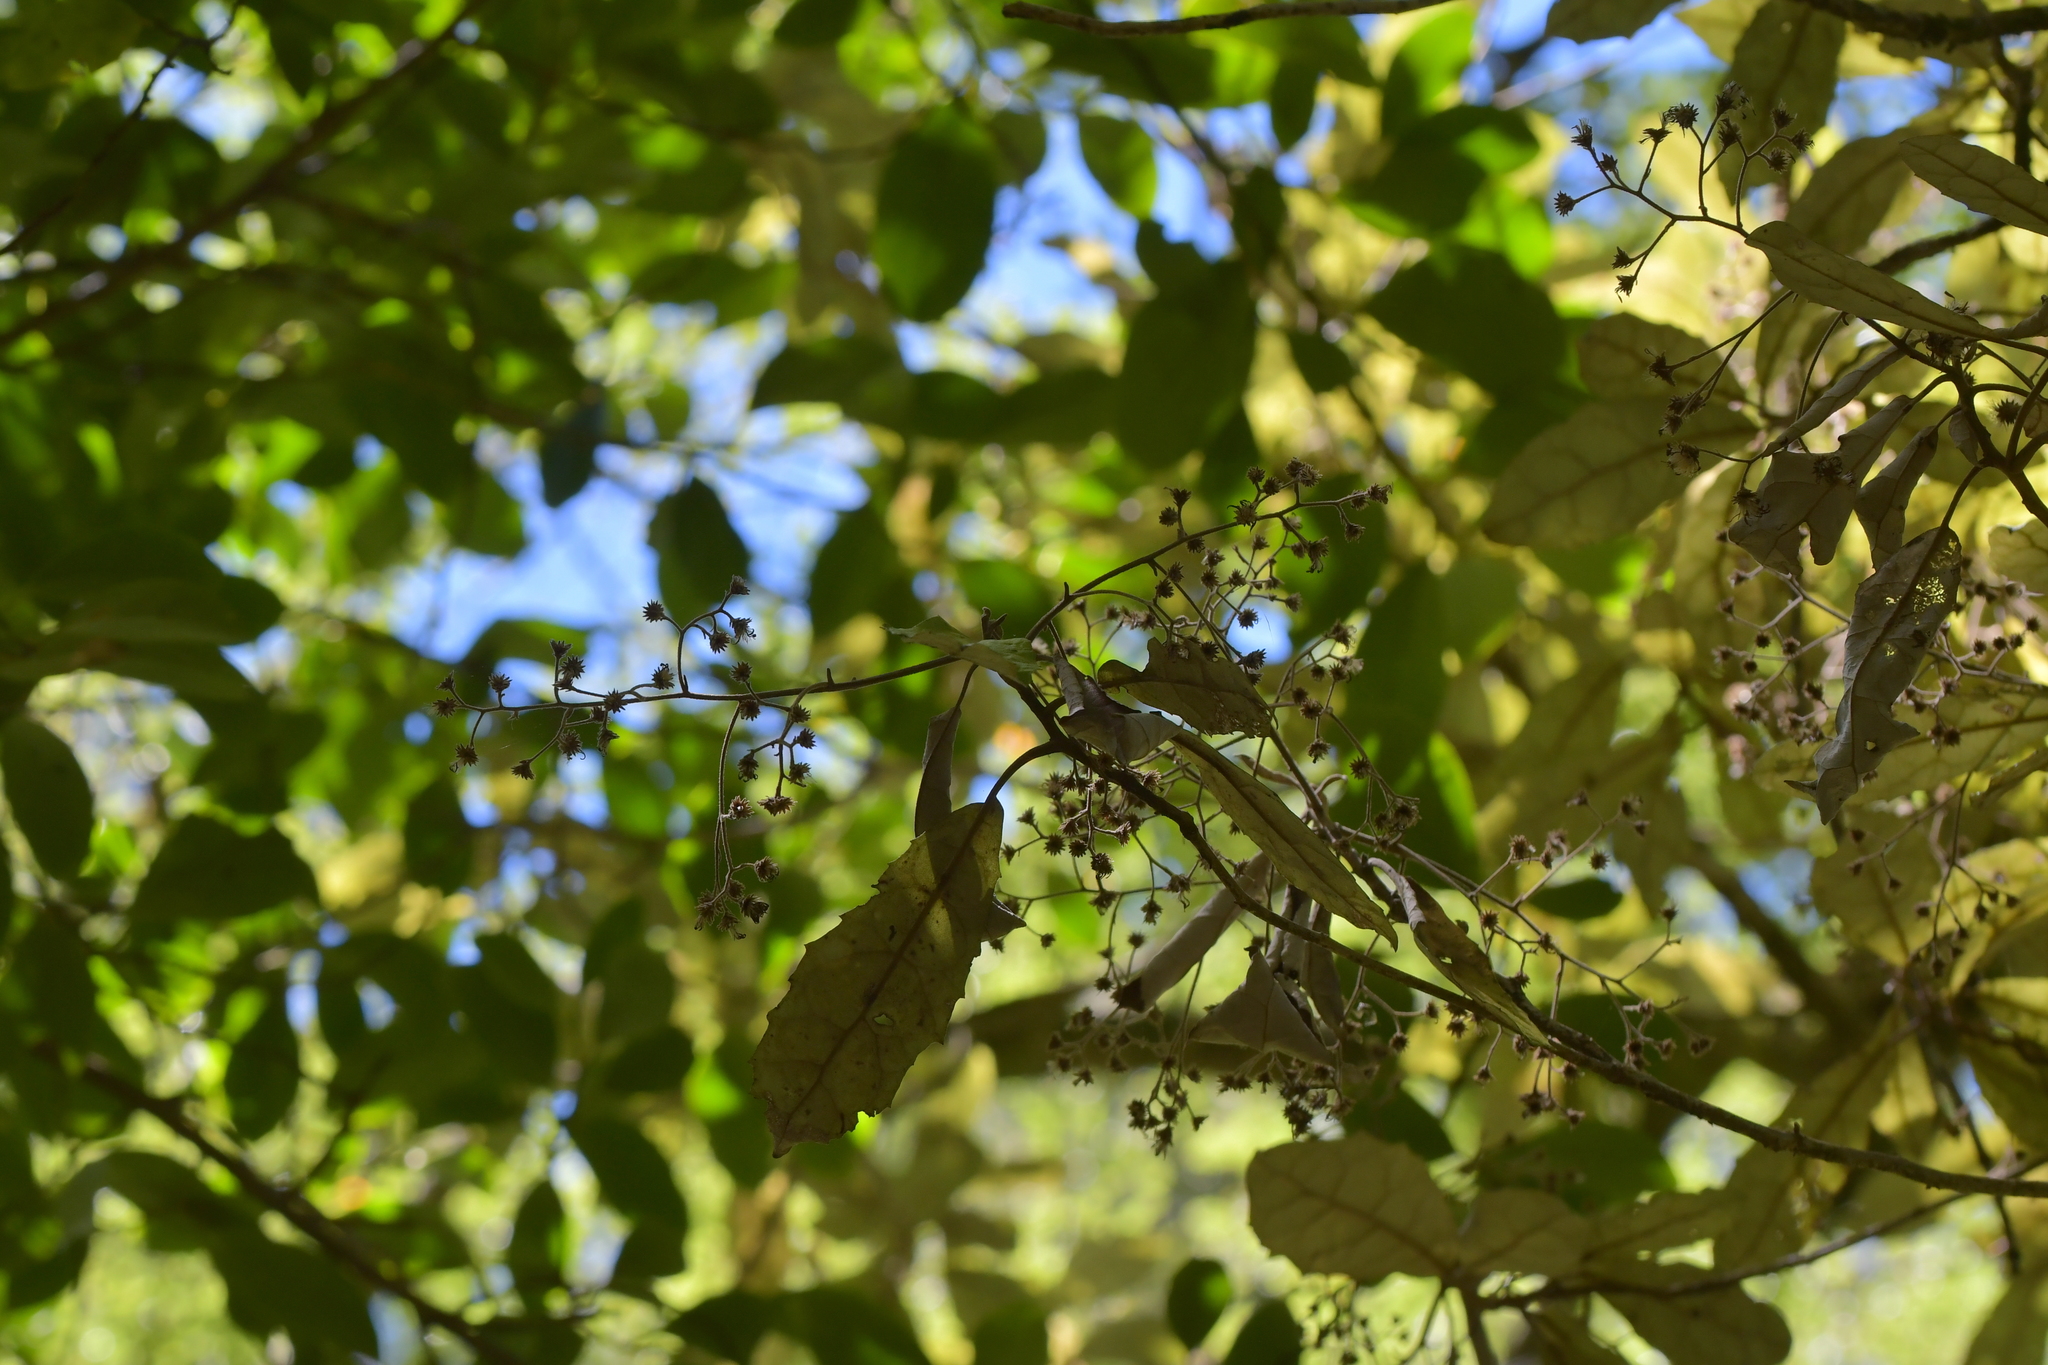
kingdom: Plantae
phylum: Tracheophyta
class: Magnoliopsida
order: Asterales
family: Asteraceae
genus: Olearia
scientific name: Olearia rani
